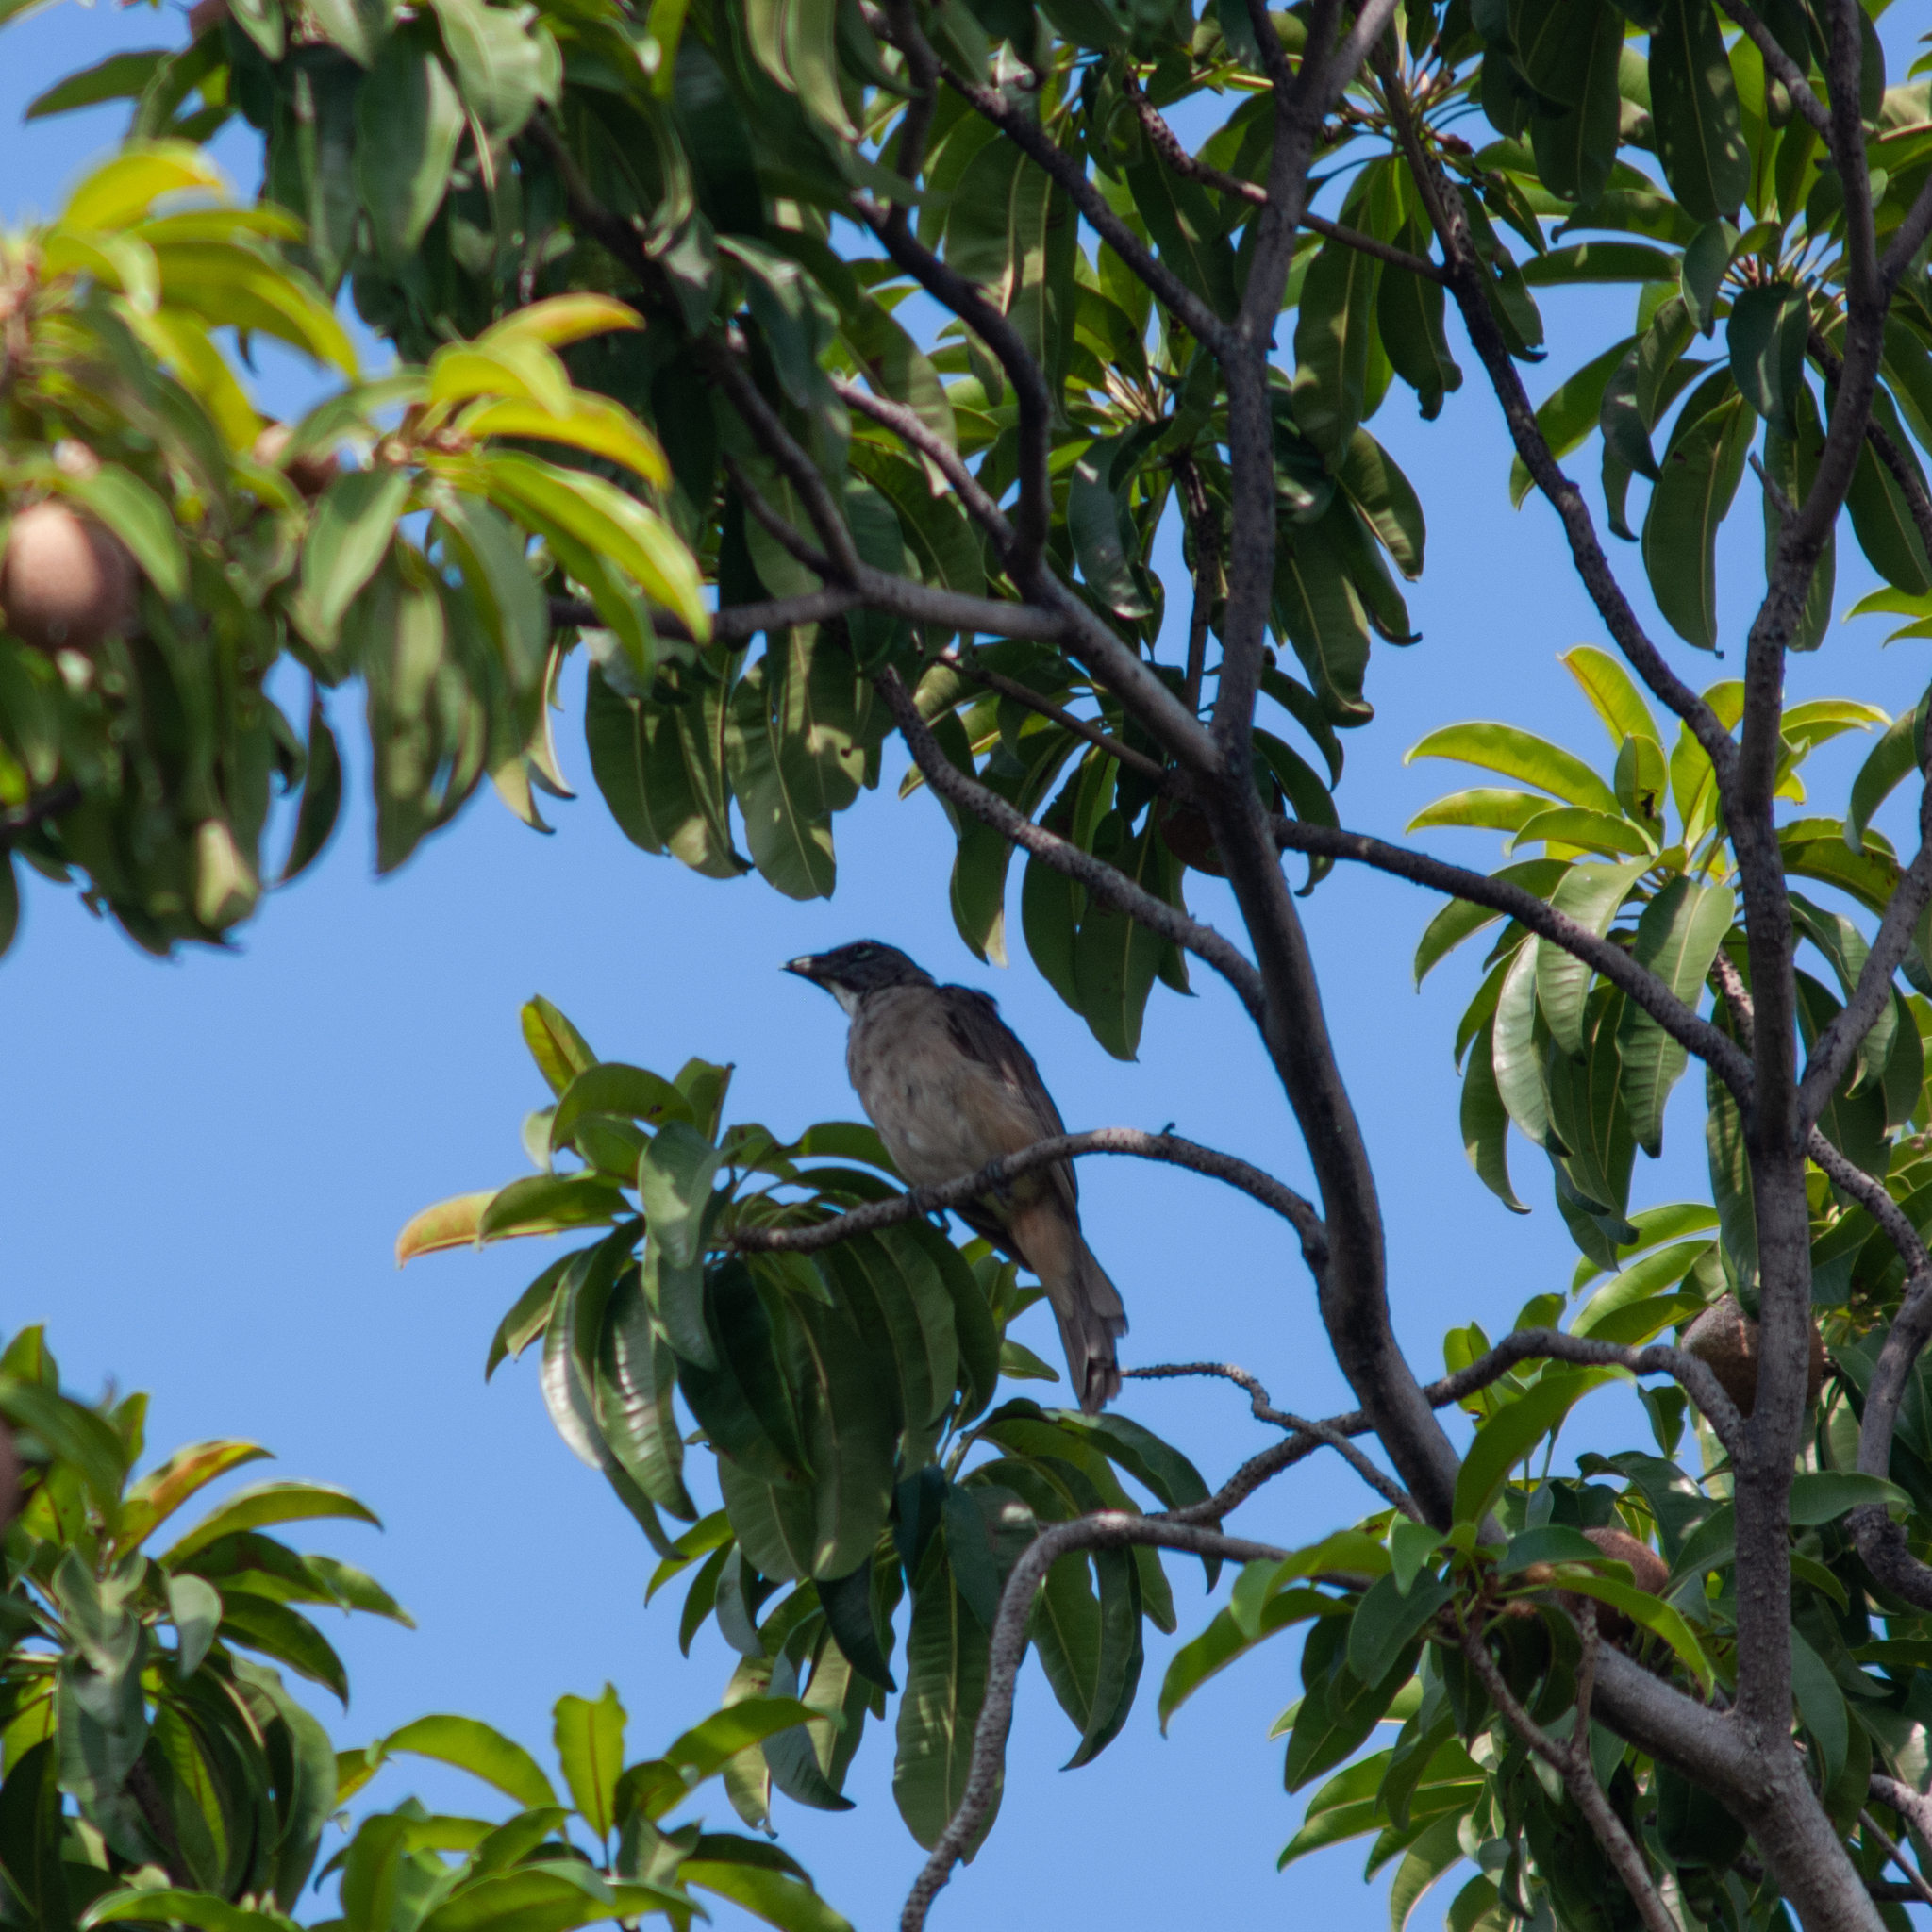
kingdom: Animalia
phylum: Chordata
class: Aves
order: Passeriformes
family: Thraupidae
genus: Saltator
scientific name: Saltator olivascens
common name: Caribbean grey saltator
